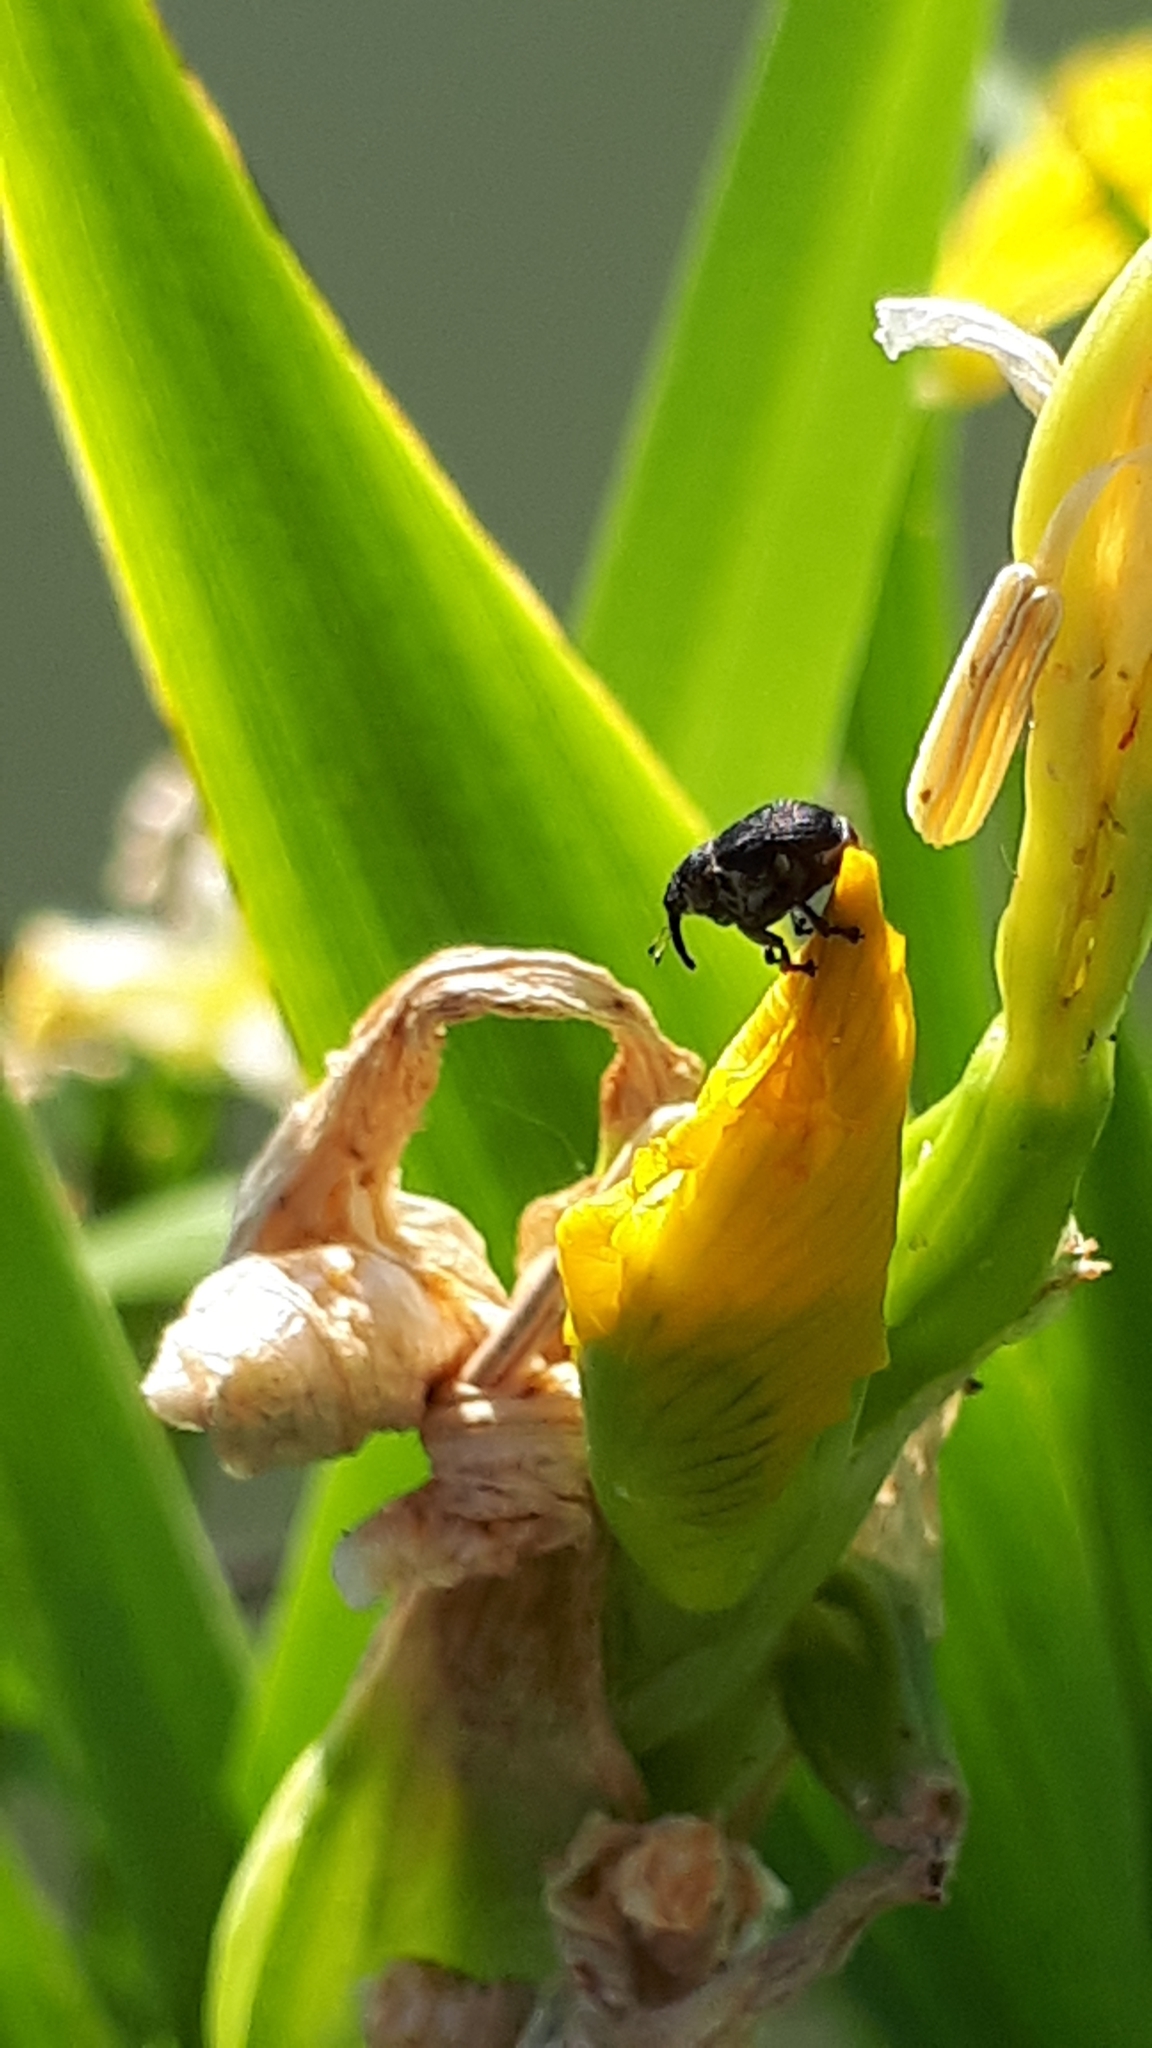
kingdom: Animalia
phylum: Arthropoda
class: Insecta
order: Coleoptera
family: Curculionidae
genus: Mononychus
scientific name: Mononychus punctumalbum
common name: Iris weevil
